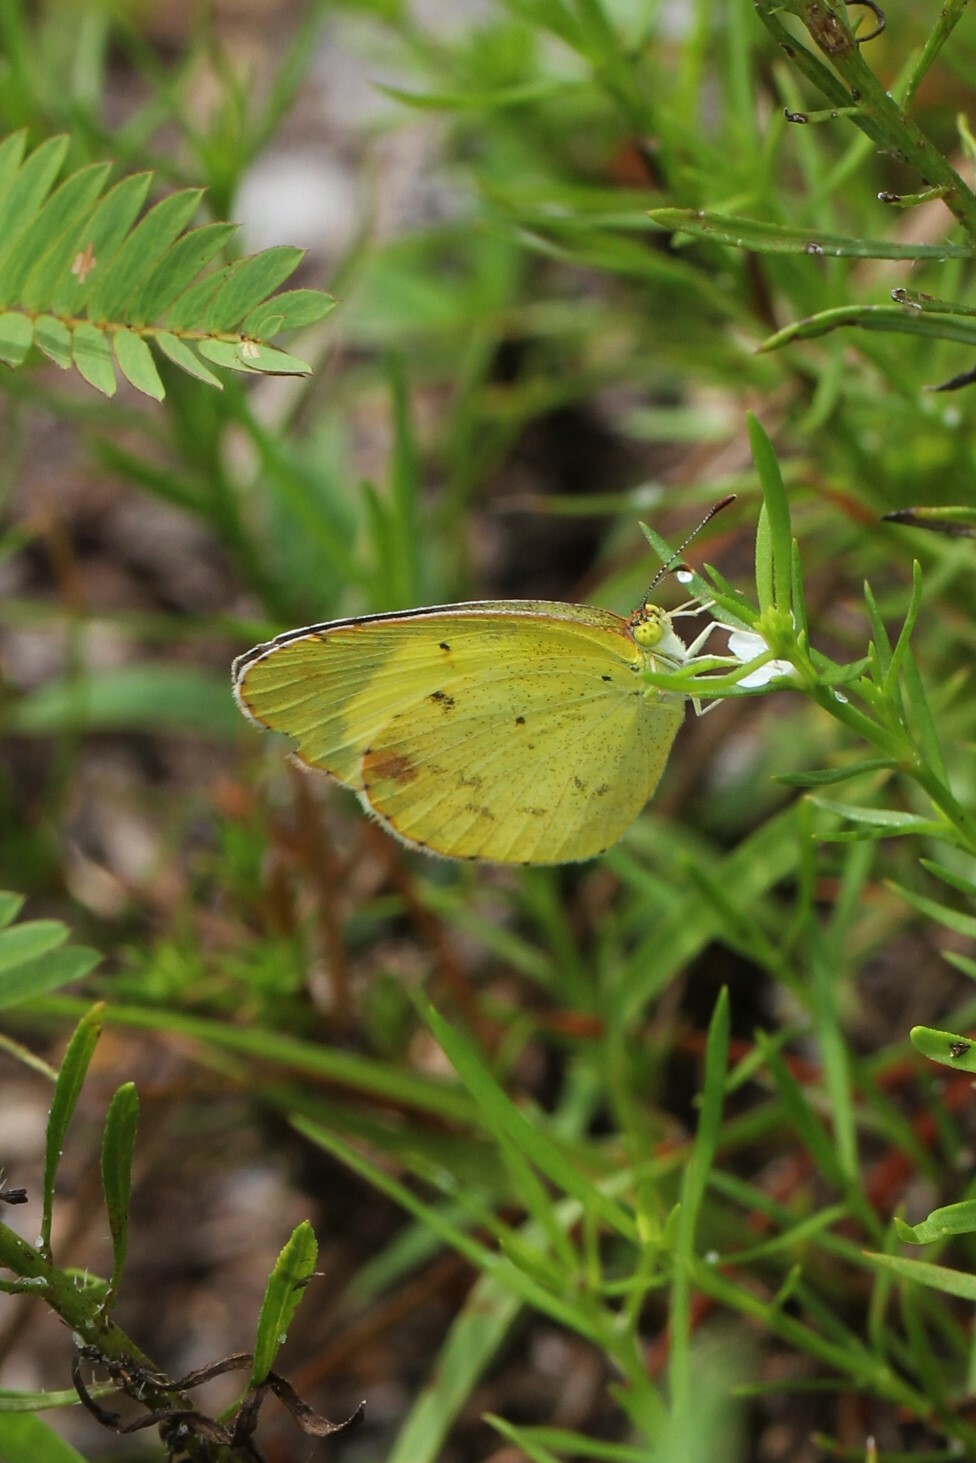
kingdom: Animalia
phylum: Arthropoda
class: Insecta
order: Lepidoptera
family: Pieridae
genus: Pyrisitia
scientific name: Pyrisitia lisa
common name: Little yellow
